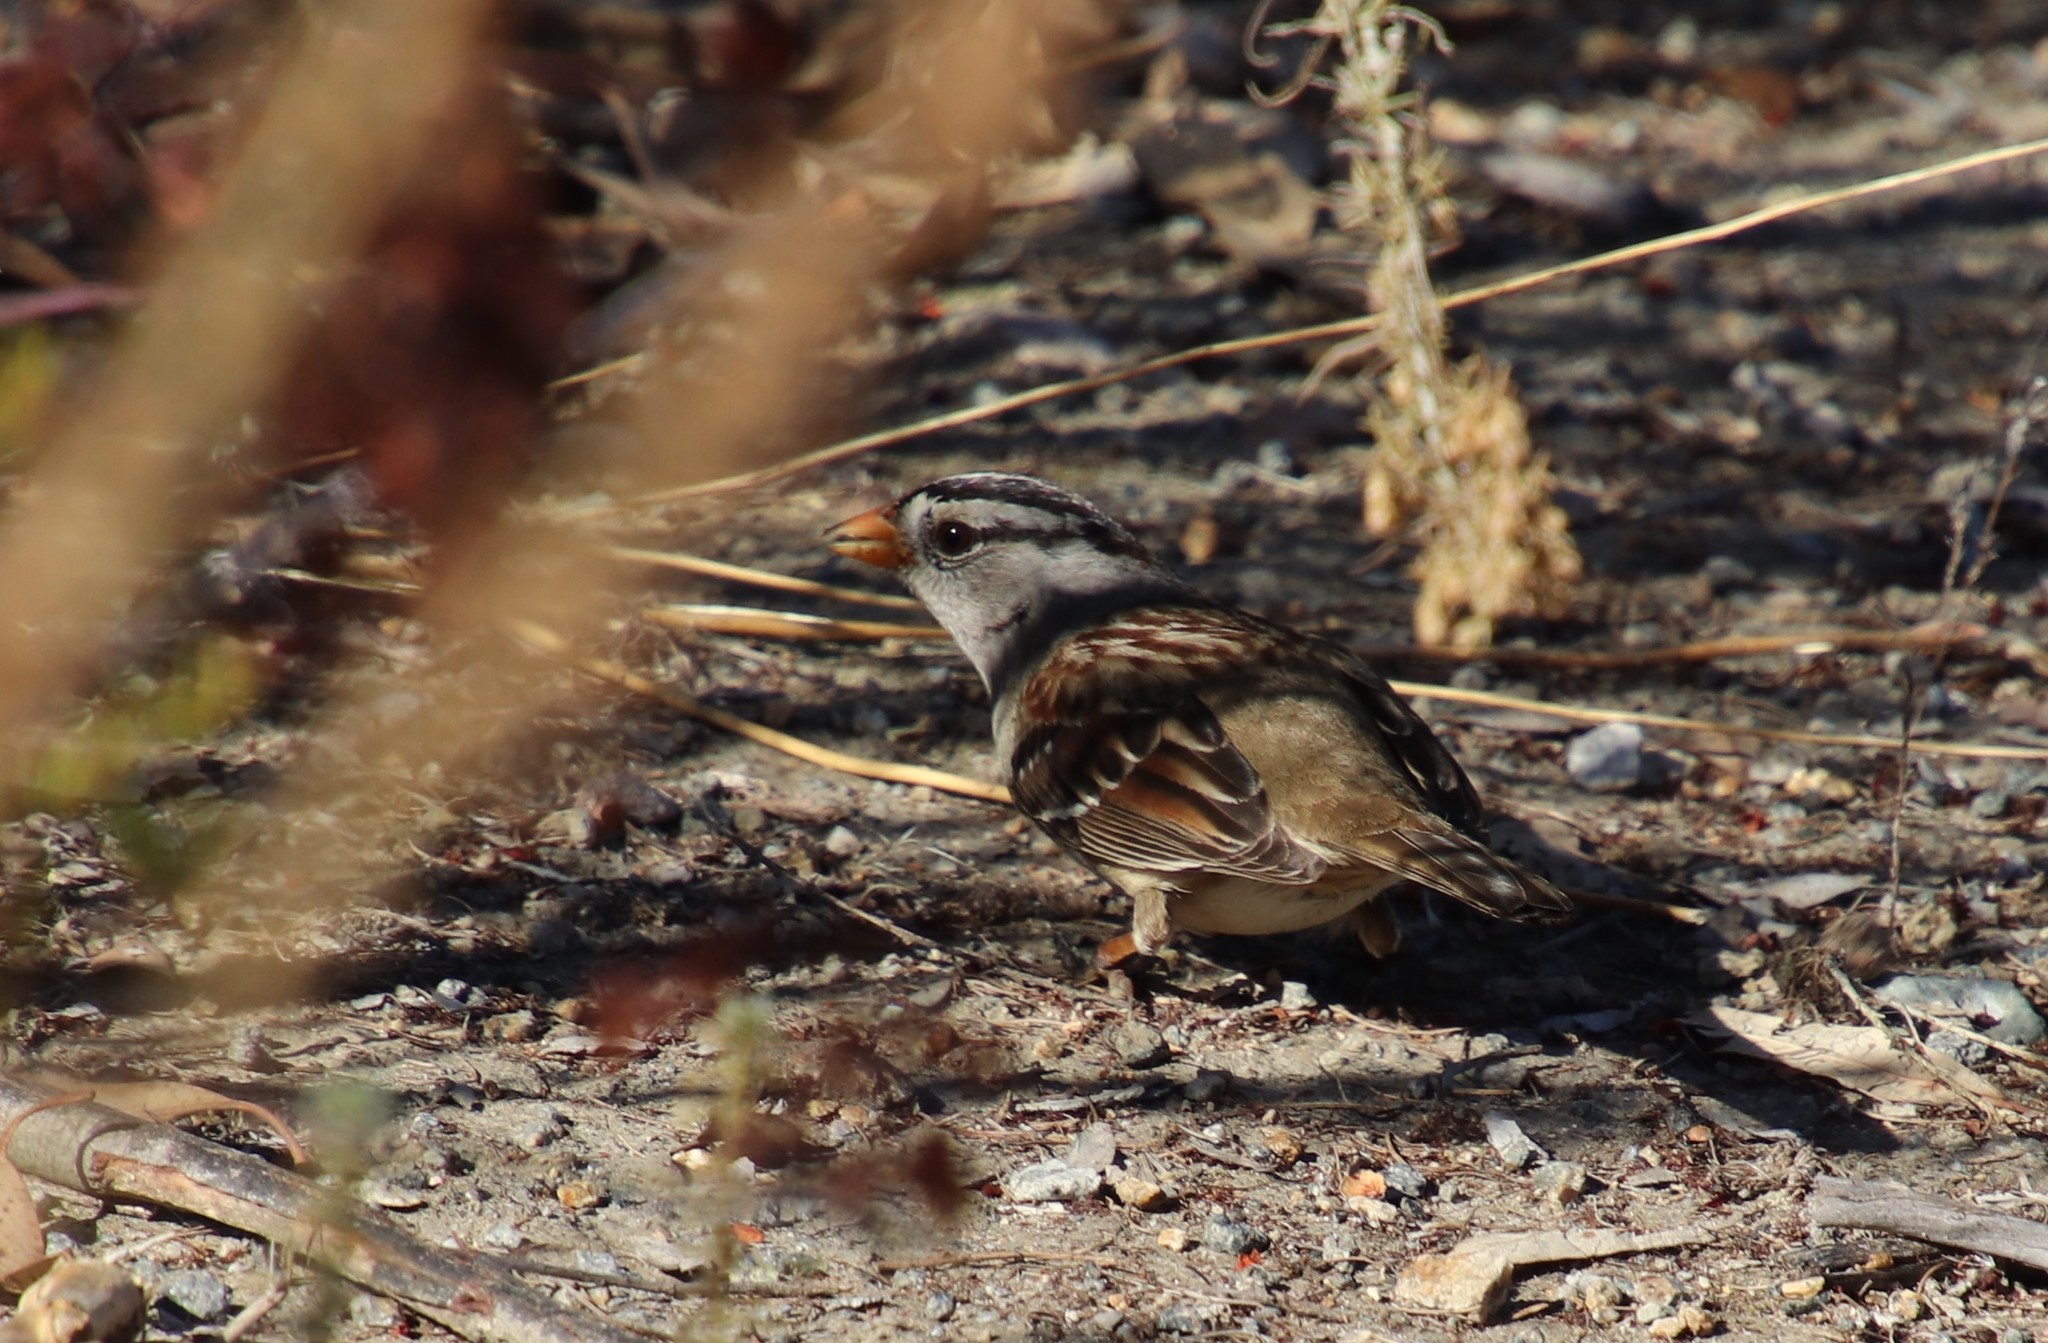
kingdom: Animalia
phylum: Chordata
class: Aves
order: Passeriformes
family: Passerellidae
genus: Zonotrichia
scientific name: Zonotrichia leucophrys
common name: White-crowned sparrow
